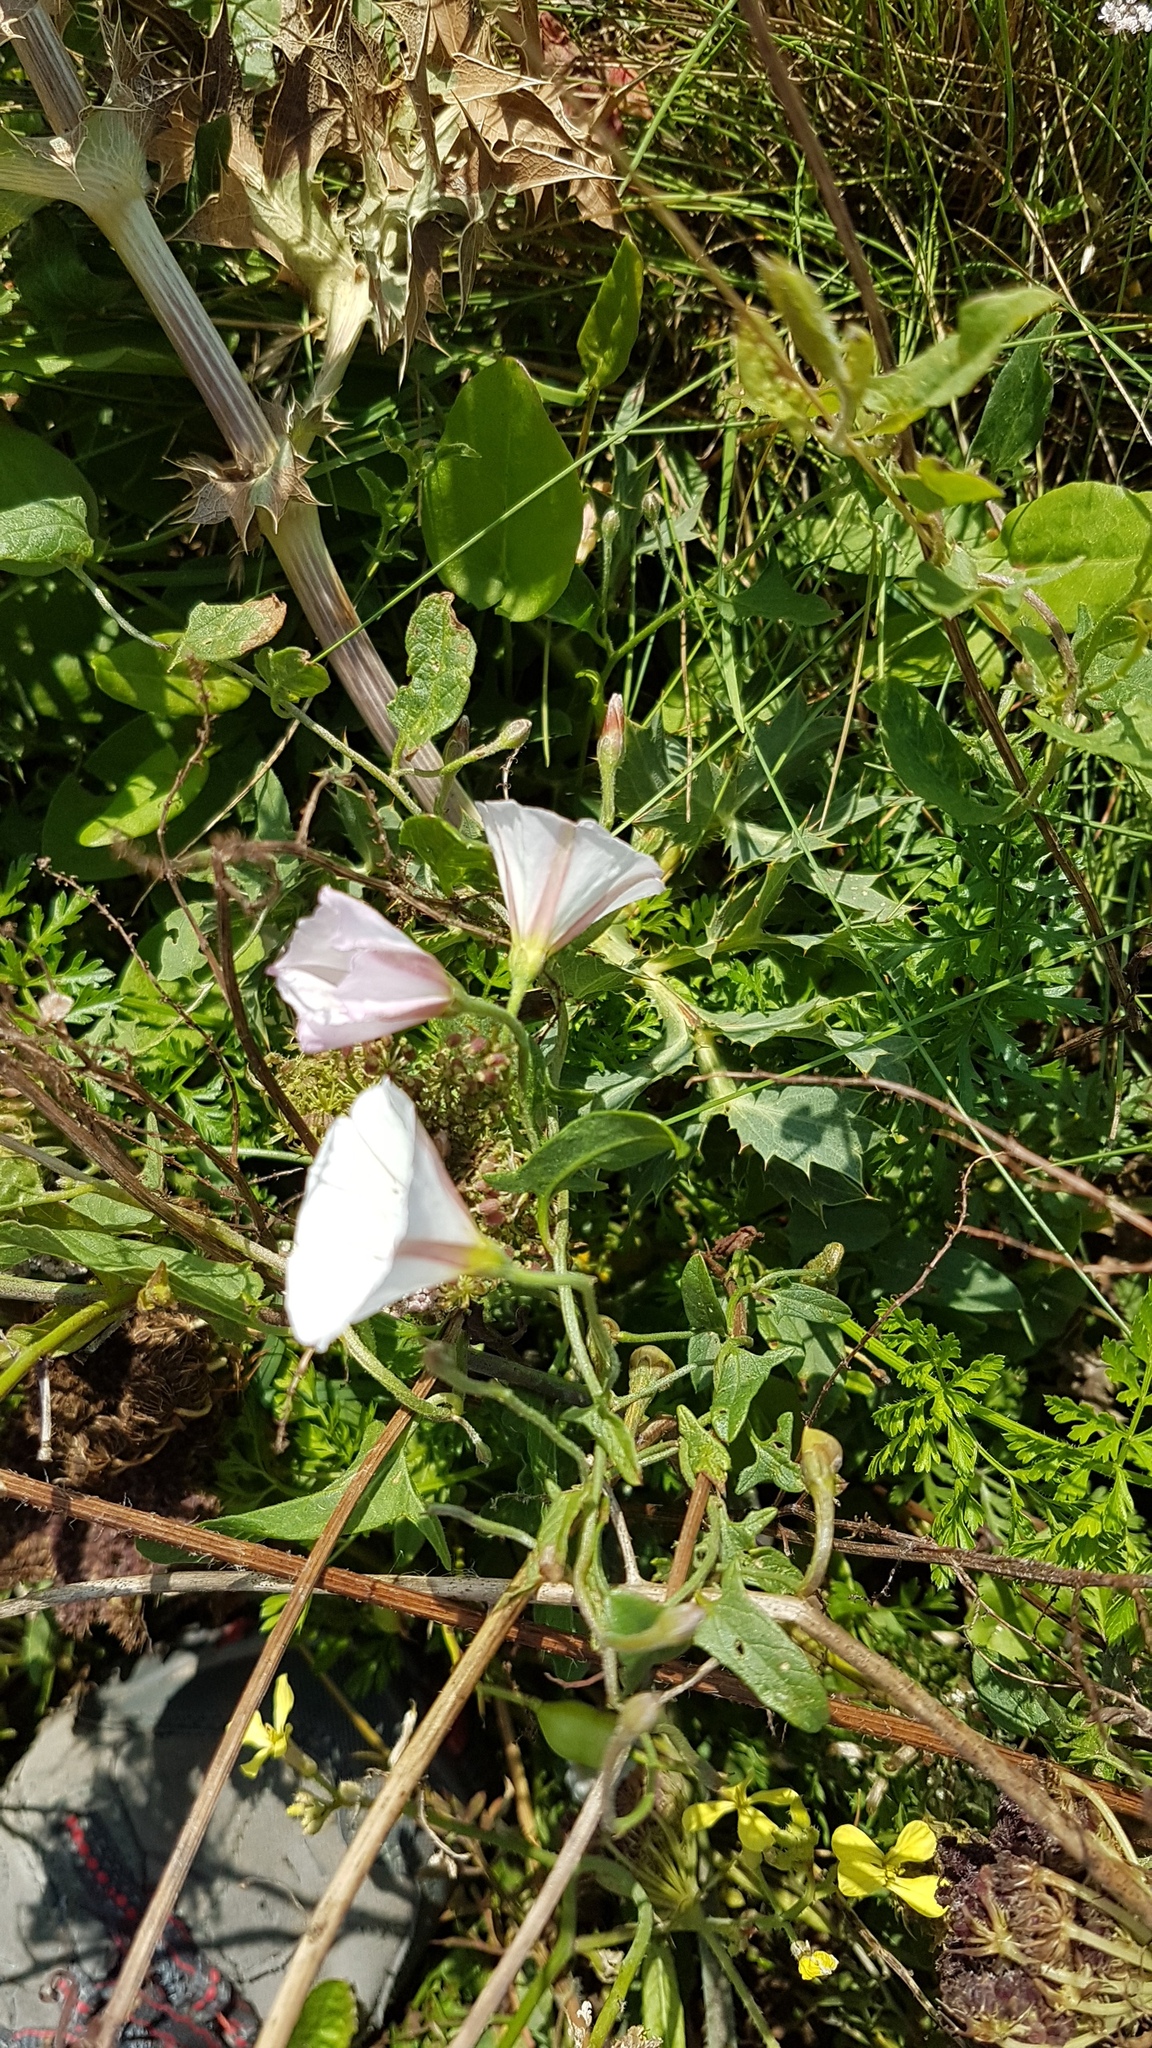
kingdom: Plantae
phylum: Tracheophyta
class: Magnoliopsida
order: Solanales
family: Convolvulaceae
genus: Convolvulus
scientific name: Convolvulus arvensis
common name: Field bindweed
